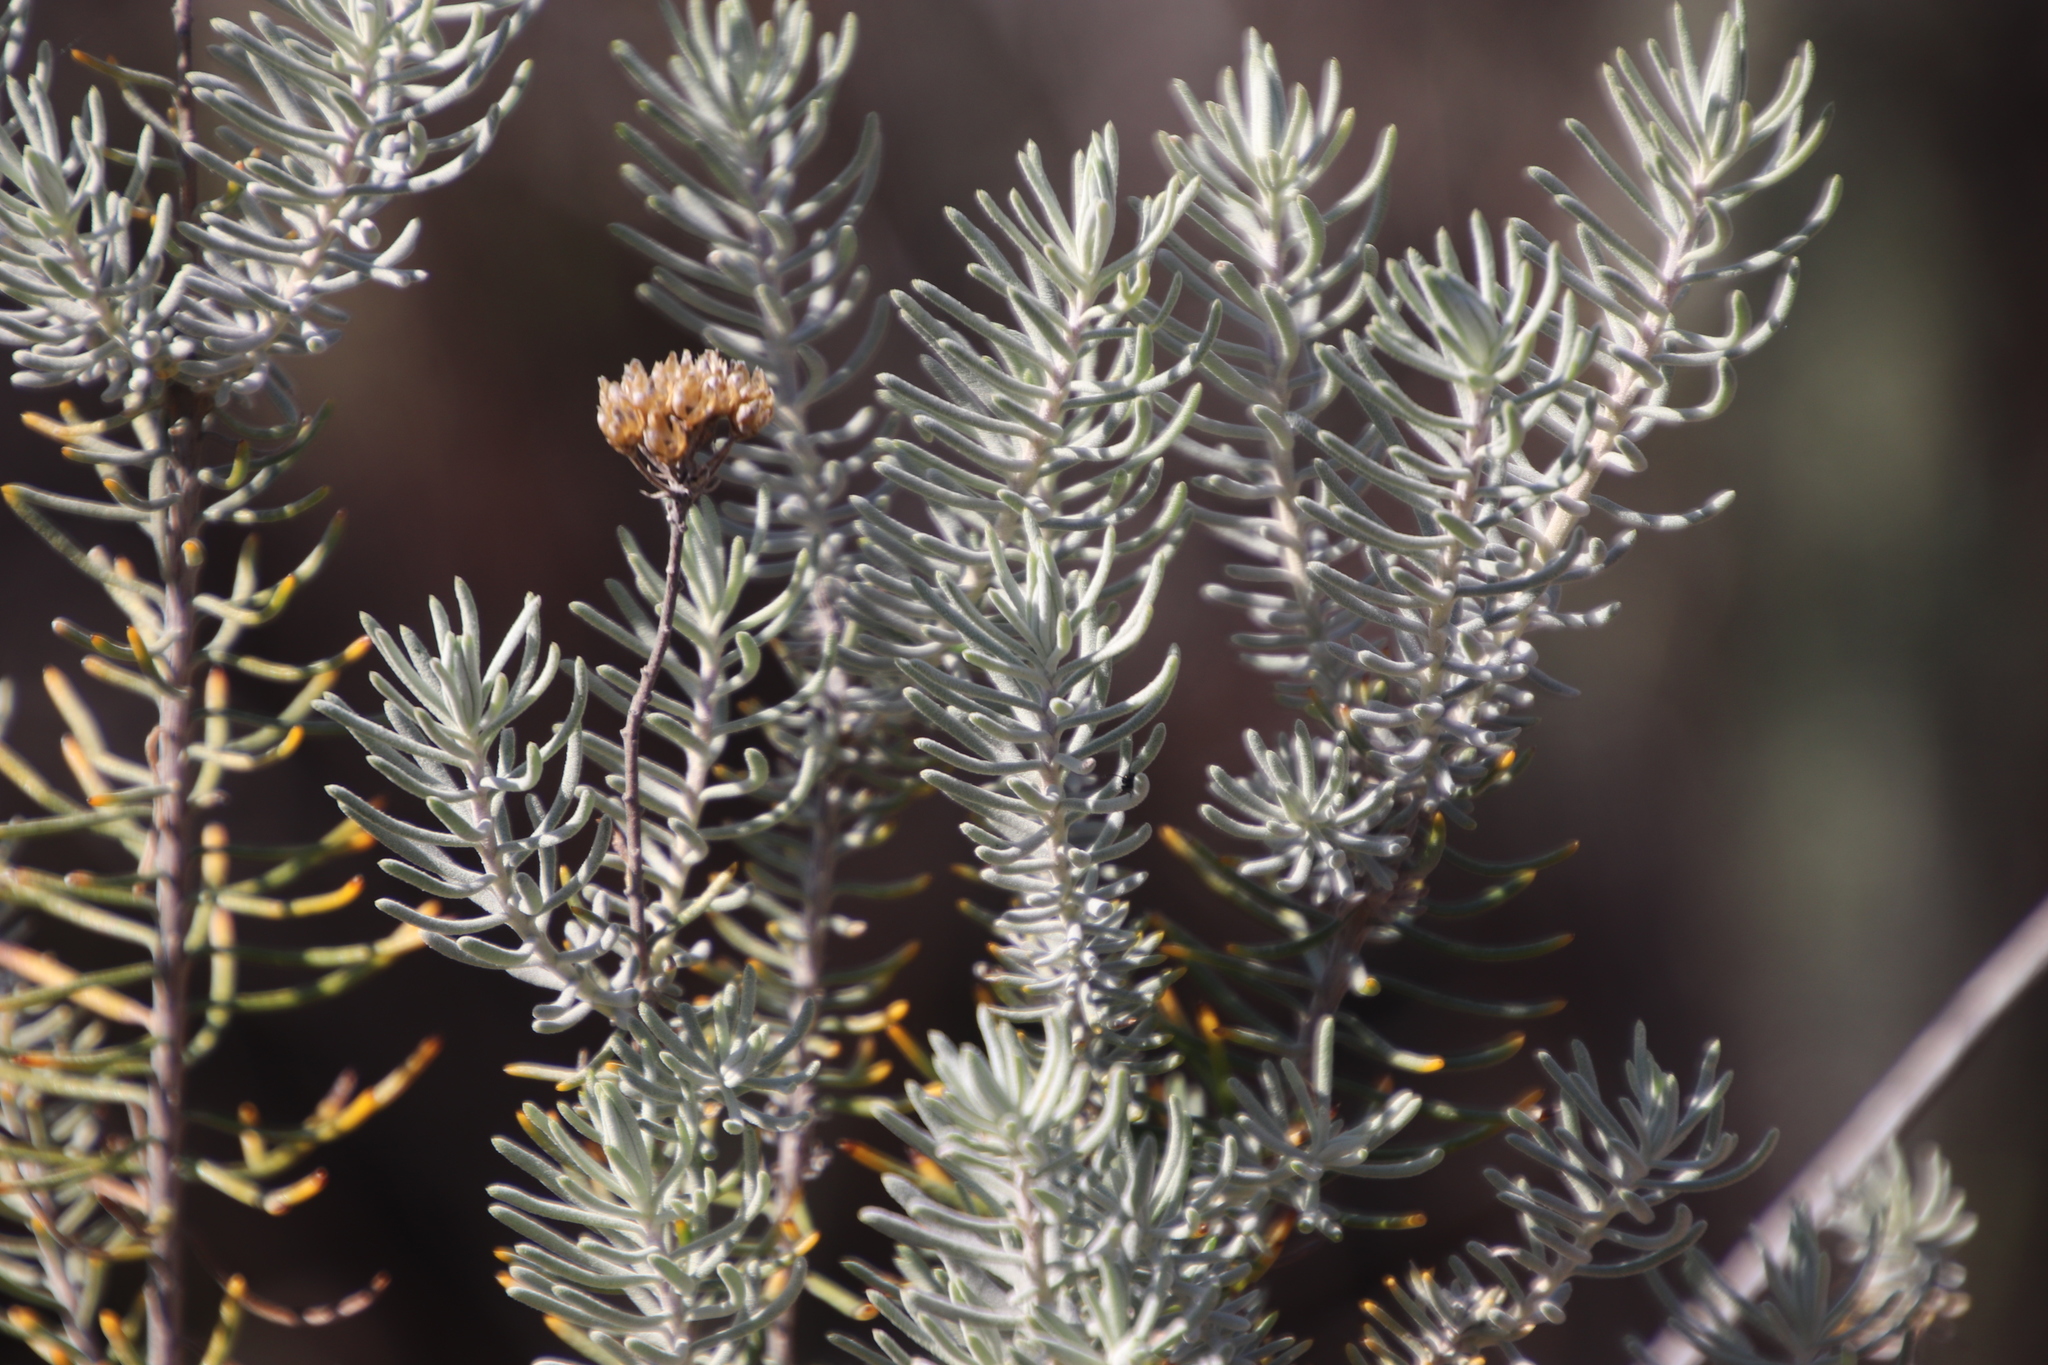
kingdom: Plantae
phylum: Tracheophyta
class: Magnoliopsida
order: Asterales
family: Asteraceae
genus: Athanasia
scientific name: Athanasia flexuosa
